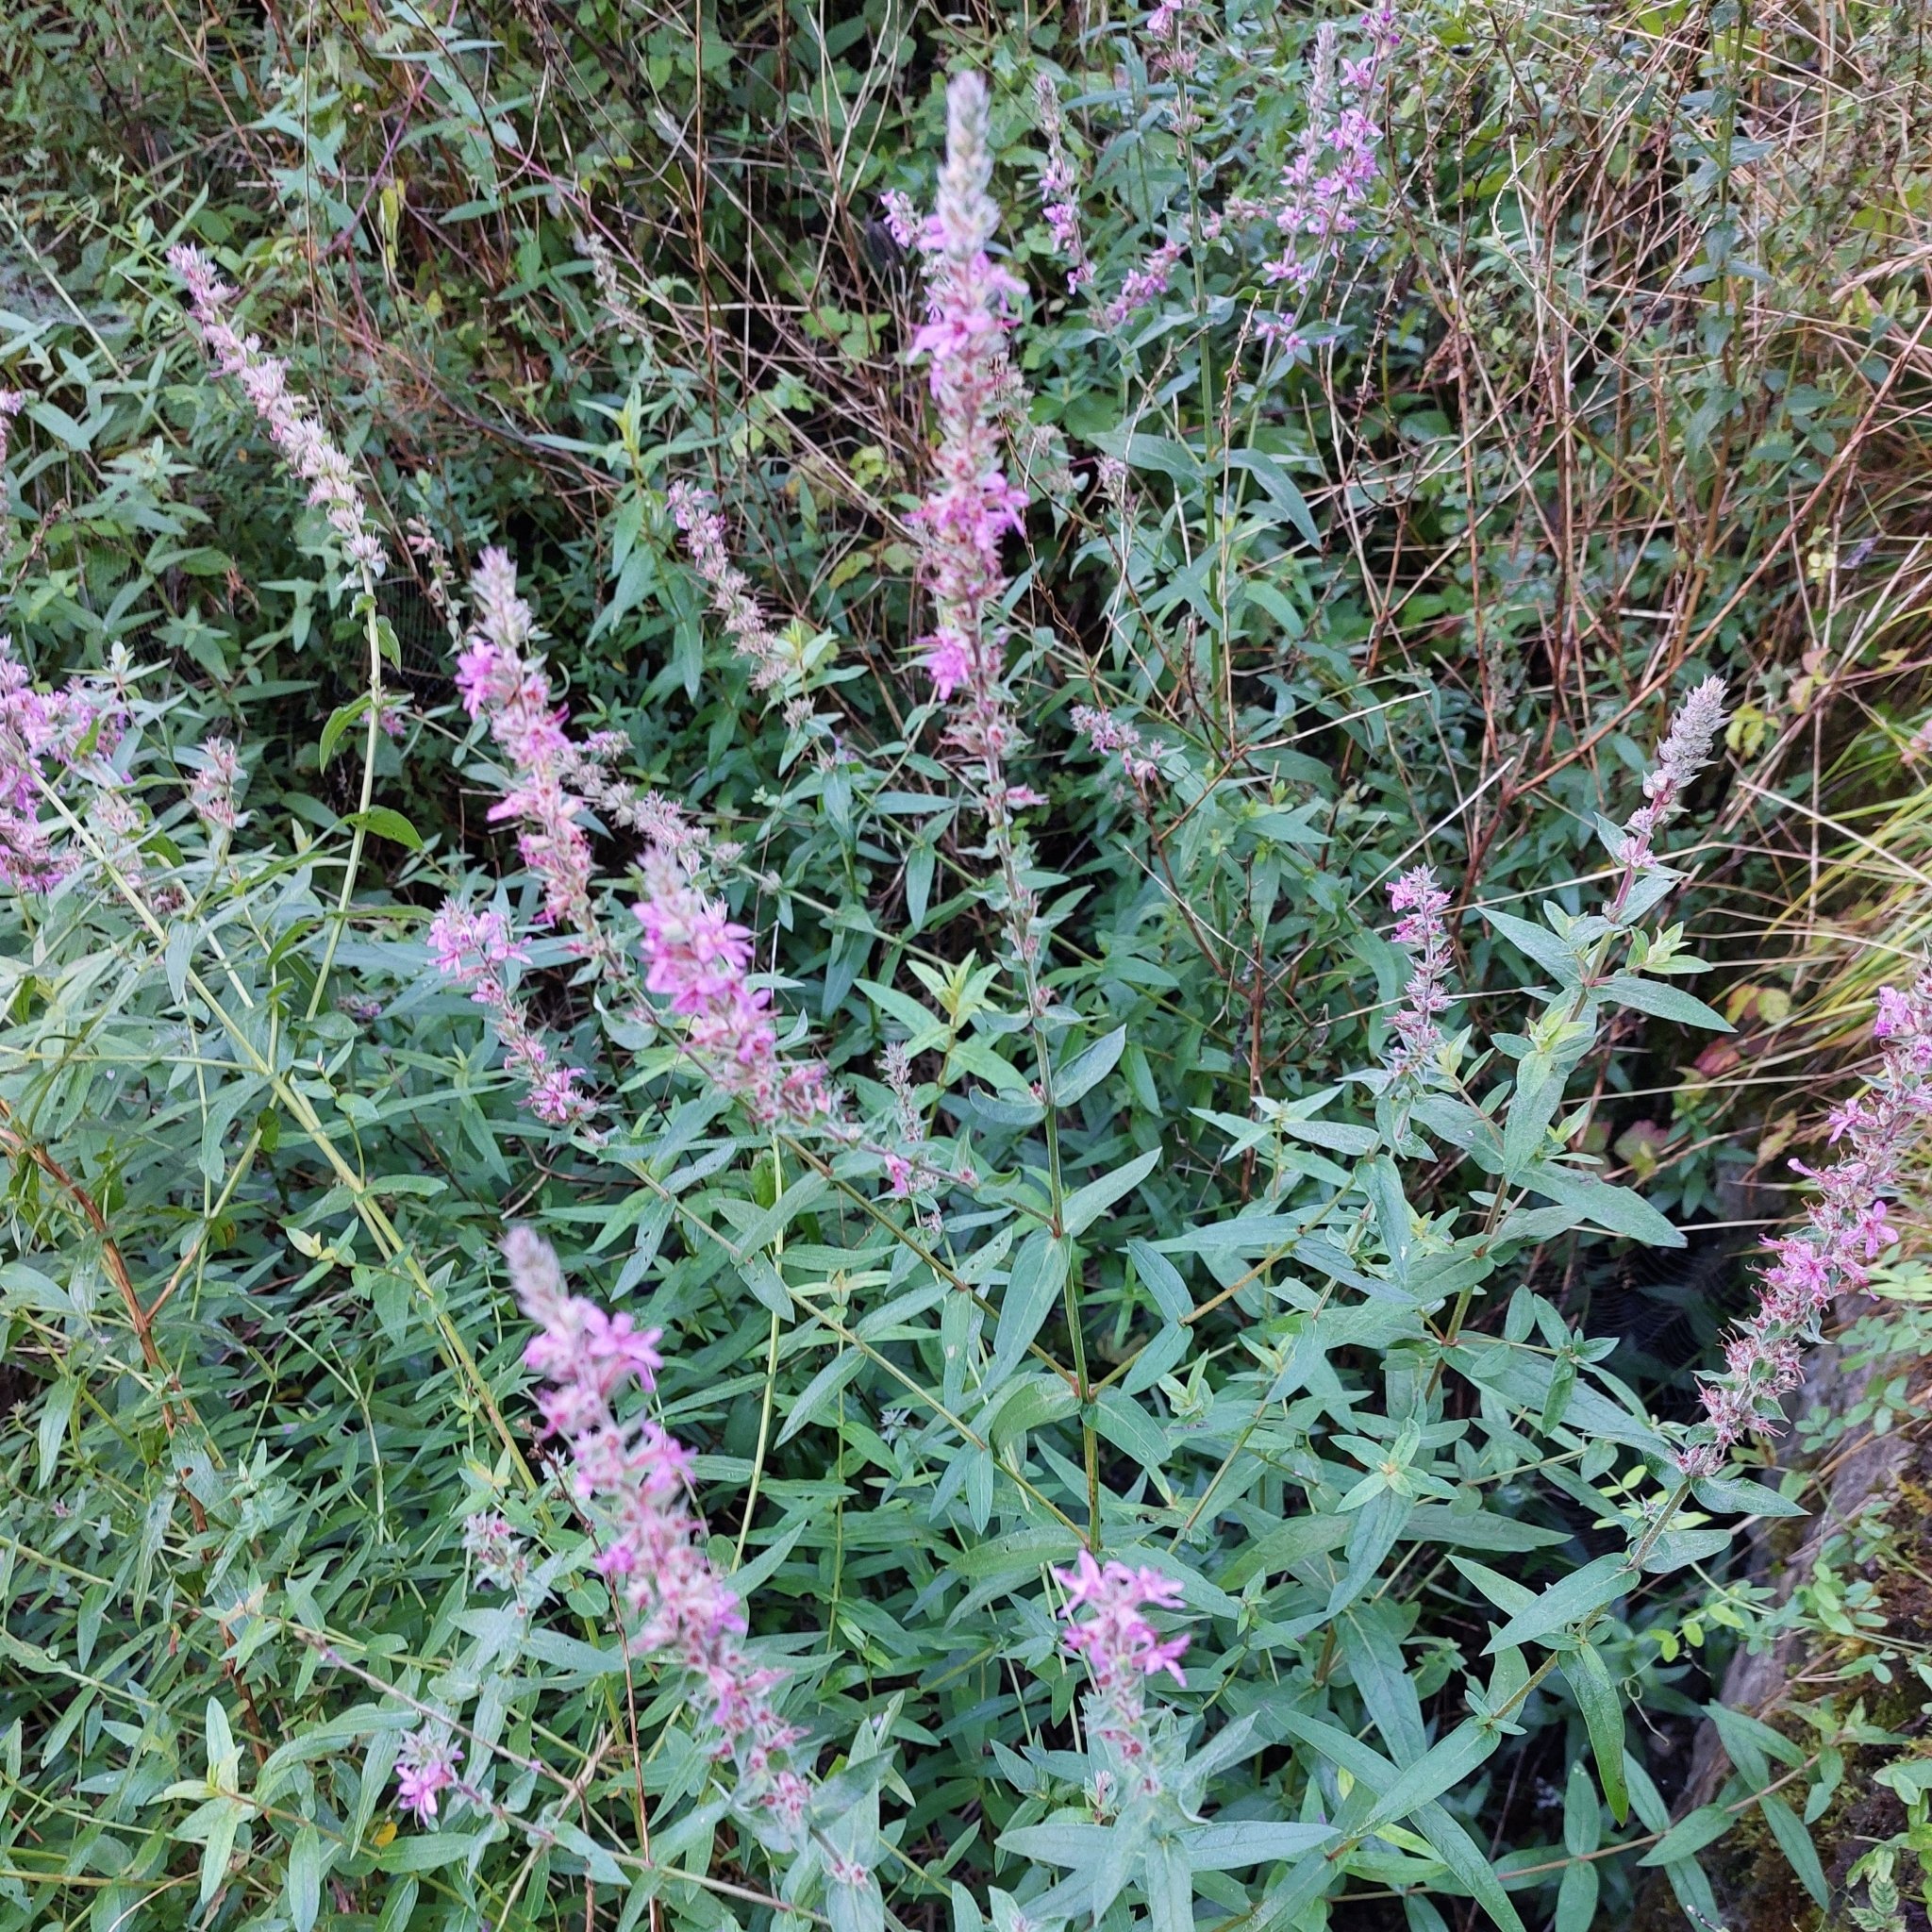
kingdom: Plantae
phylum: Tracheophyta
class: Magnoliopsida
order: Myrtales
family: Lythraceae
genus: Lythrum
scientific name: Lythrum salicaria
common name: Purple loosestrife
